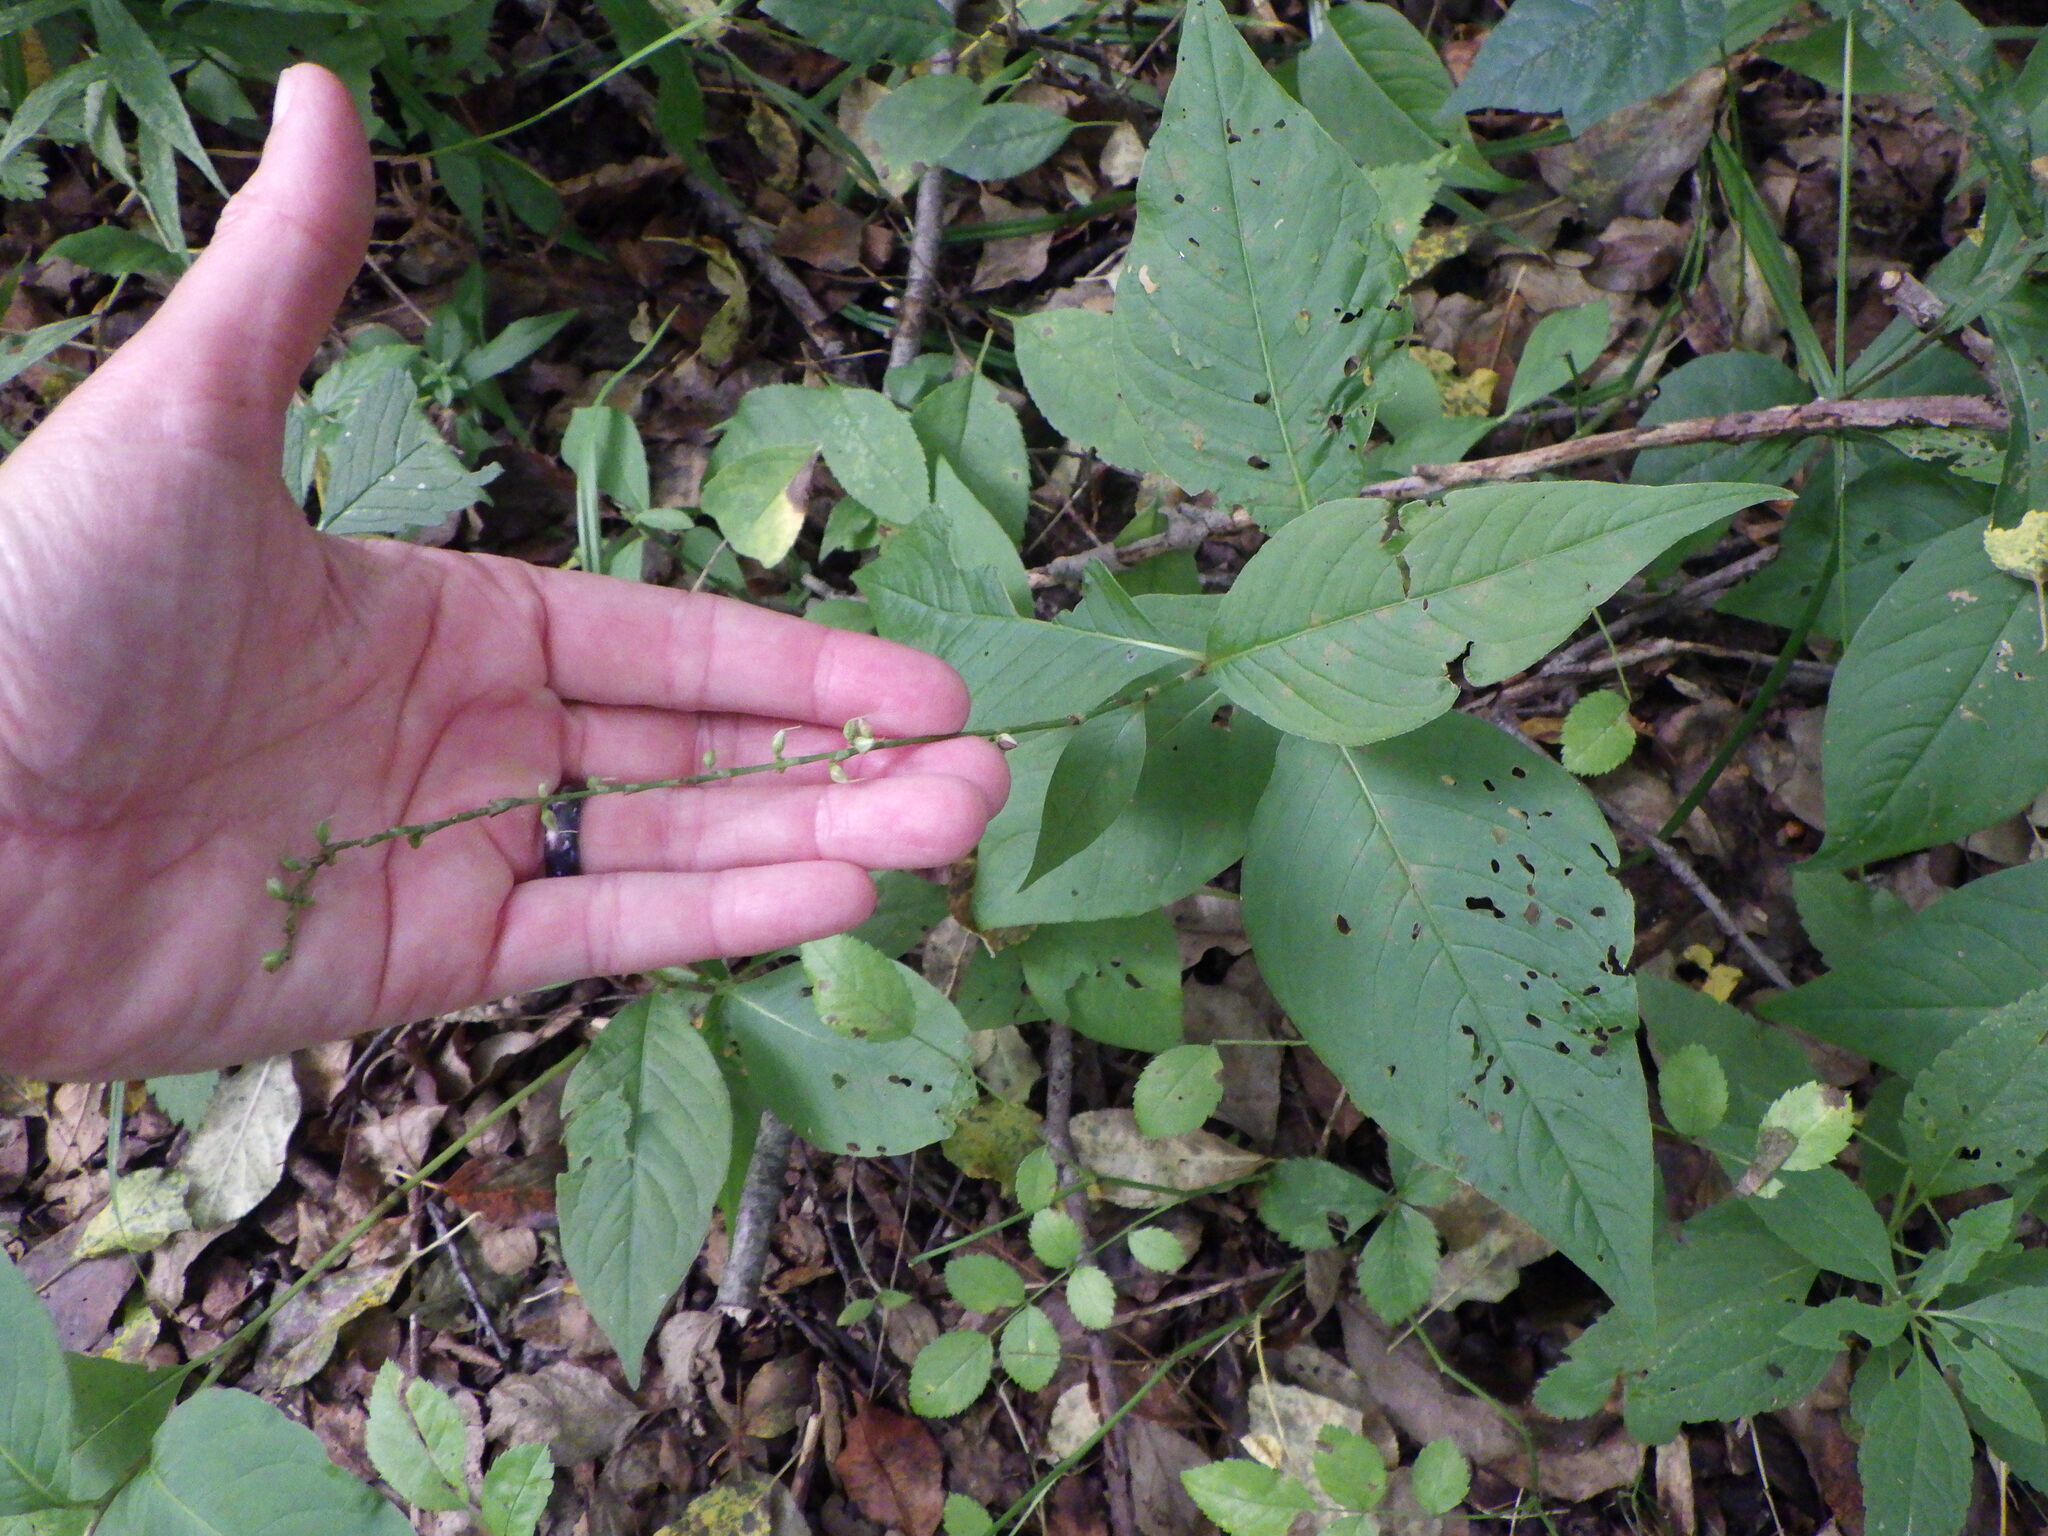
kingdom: Plantae
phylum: Tracheophyta
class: Magnoliopsida
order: Caryophyllales
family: Polygonaceae
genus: Persicaria
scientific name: Persicaria virginiana
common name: Jumpseed
